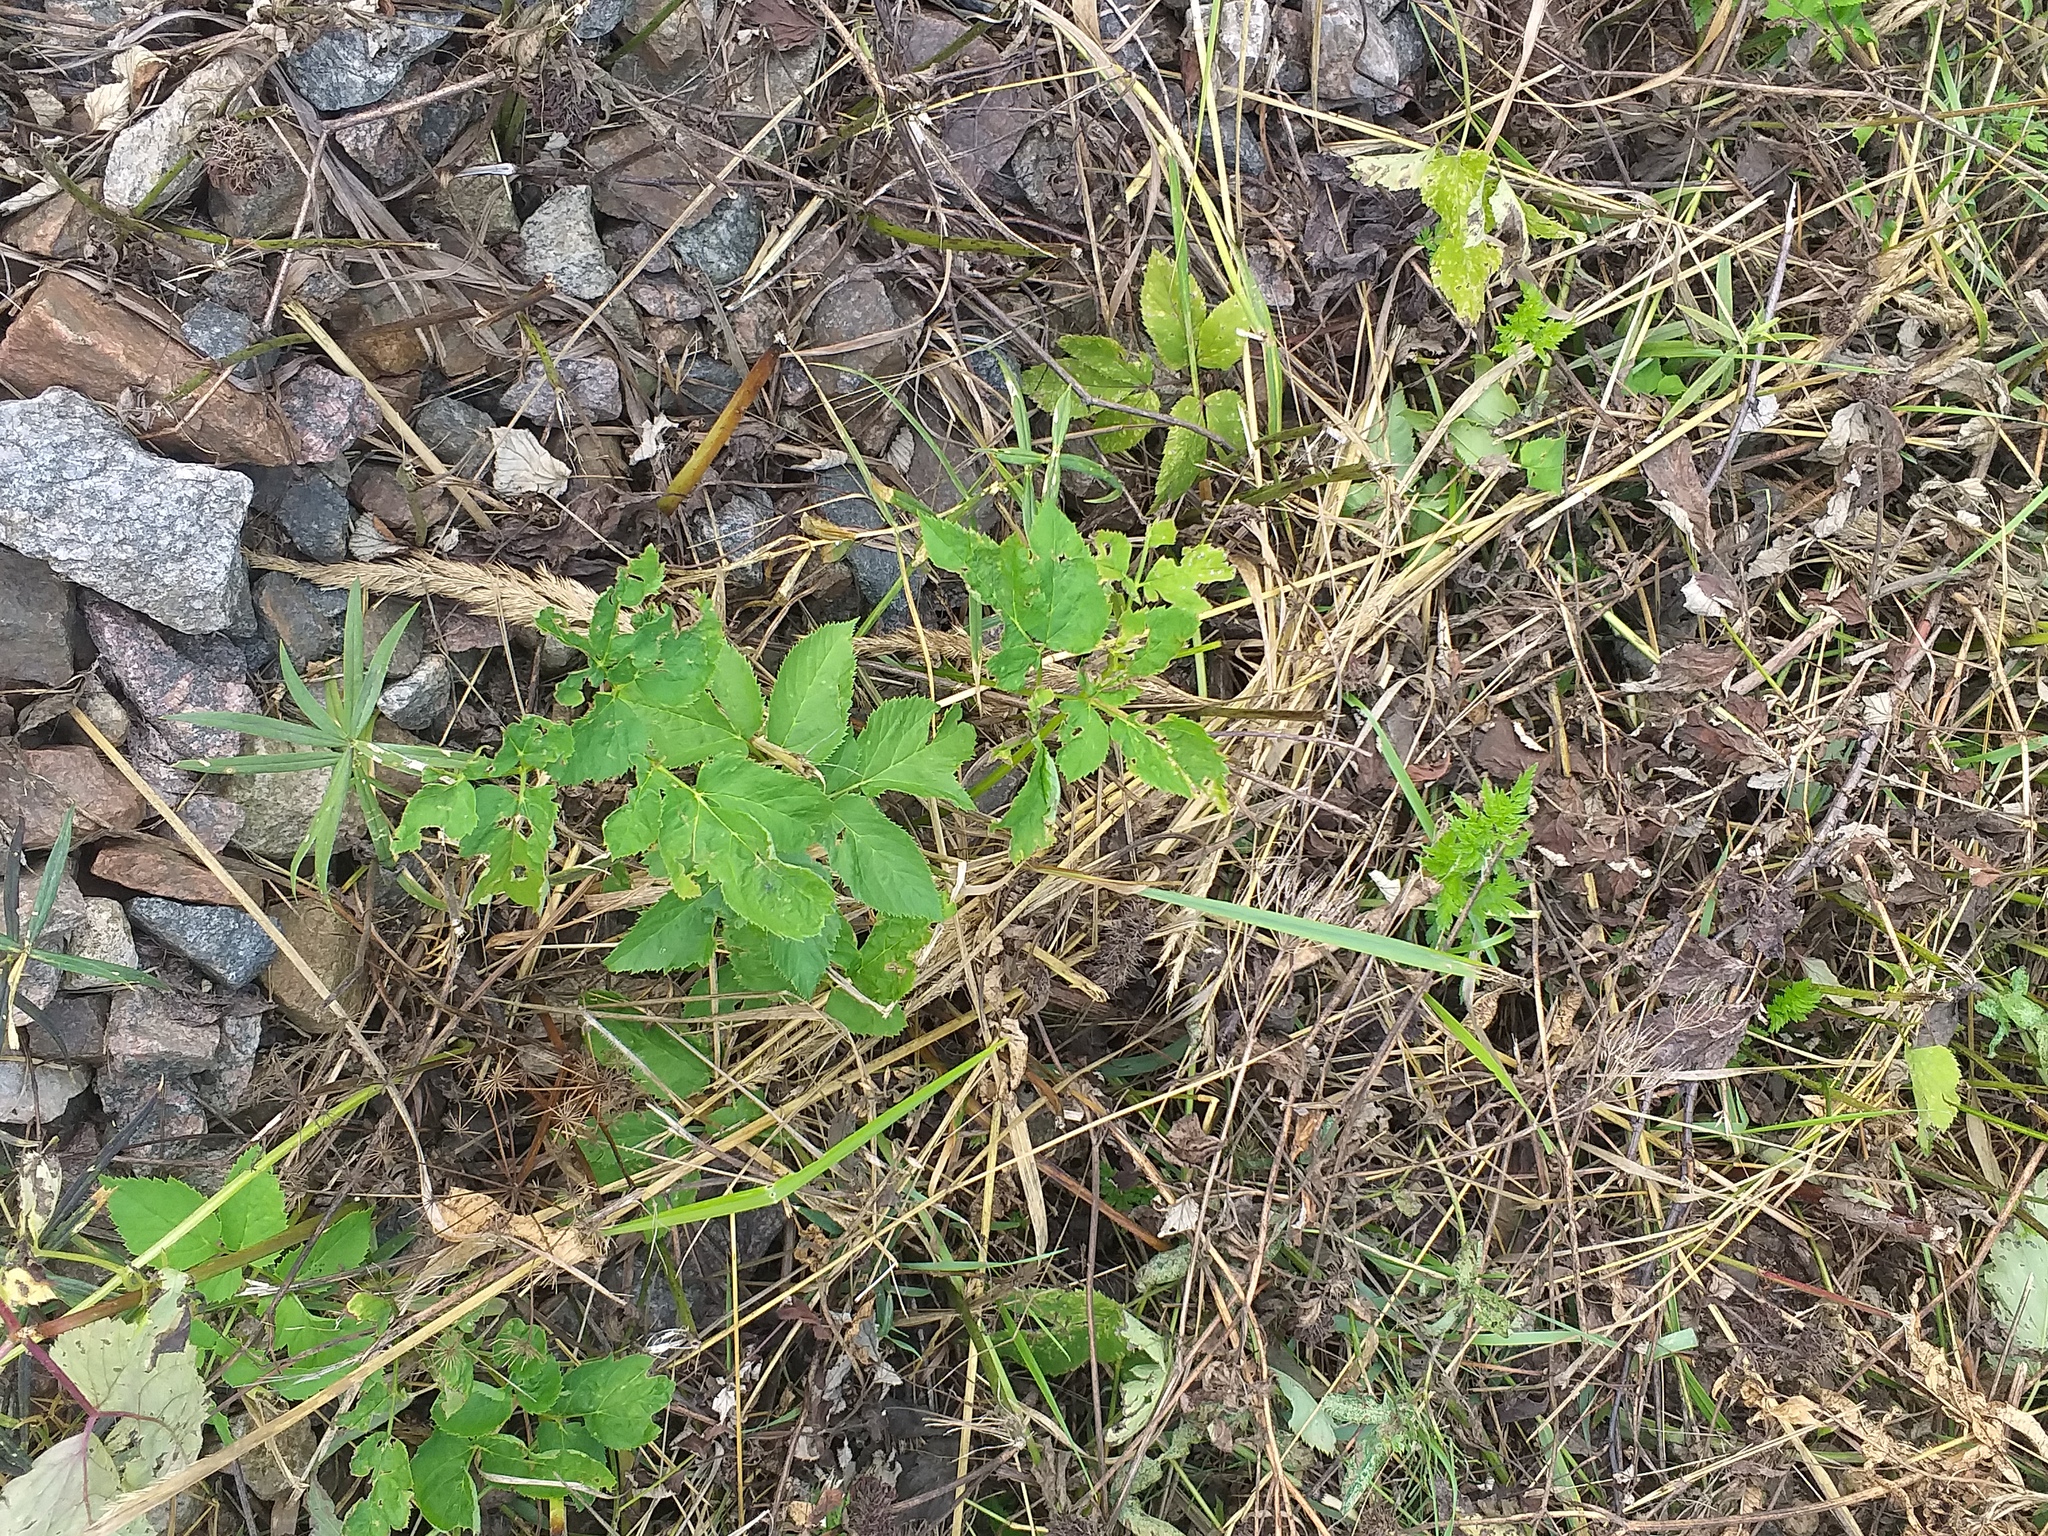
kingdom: Plantae
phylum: Tracheophyta
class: Magnoliopsida
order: Apiales
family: Apiaceae
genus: Aegopodium
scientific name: Aegopodium podagraria
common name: Ground-elder
